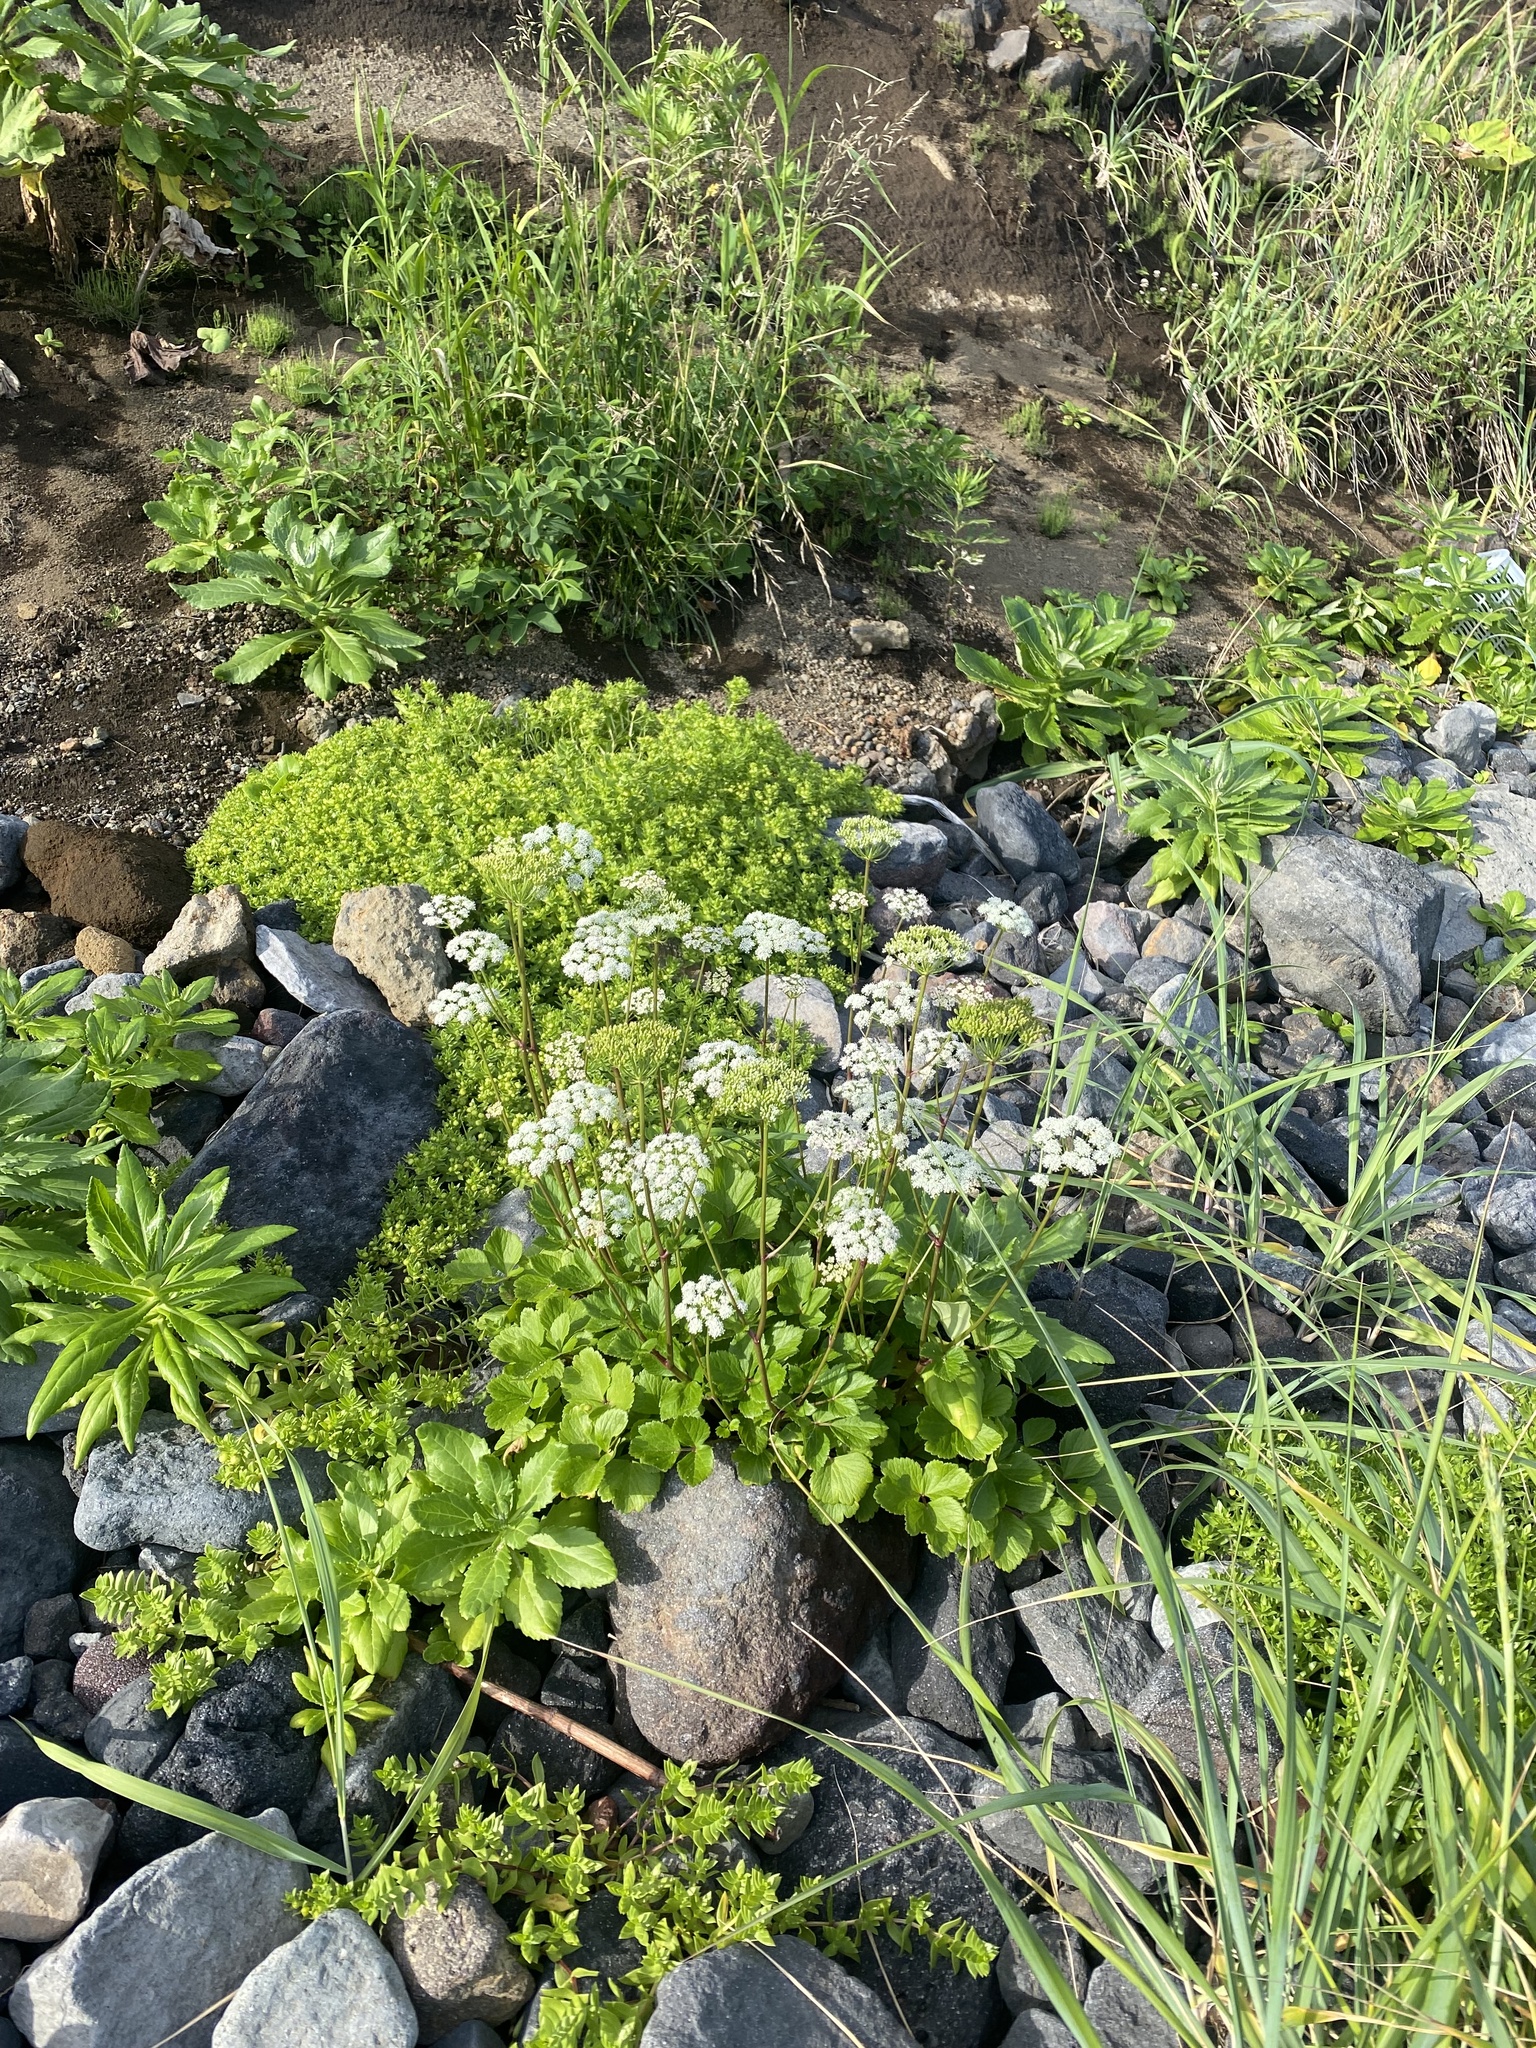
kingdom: Plantae
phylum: Tracheophyta
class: Magnoliopsida
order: Apiales
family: Apiaceae
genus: Ligusticum
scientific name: Ligusticum scothicum
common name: Beach lovage
